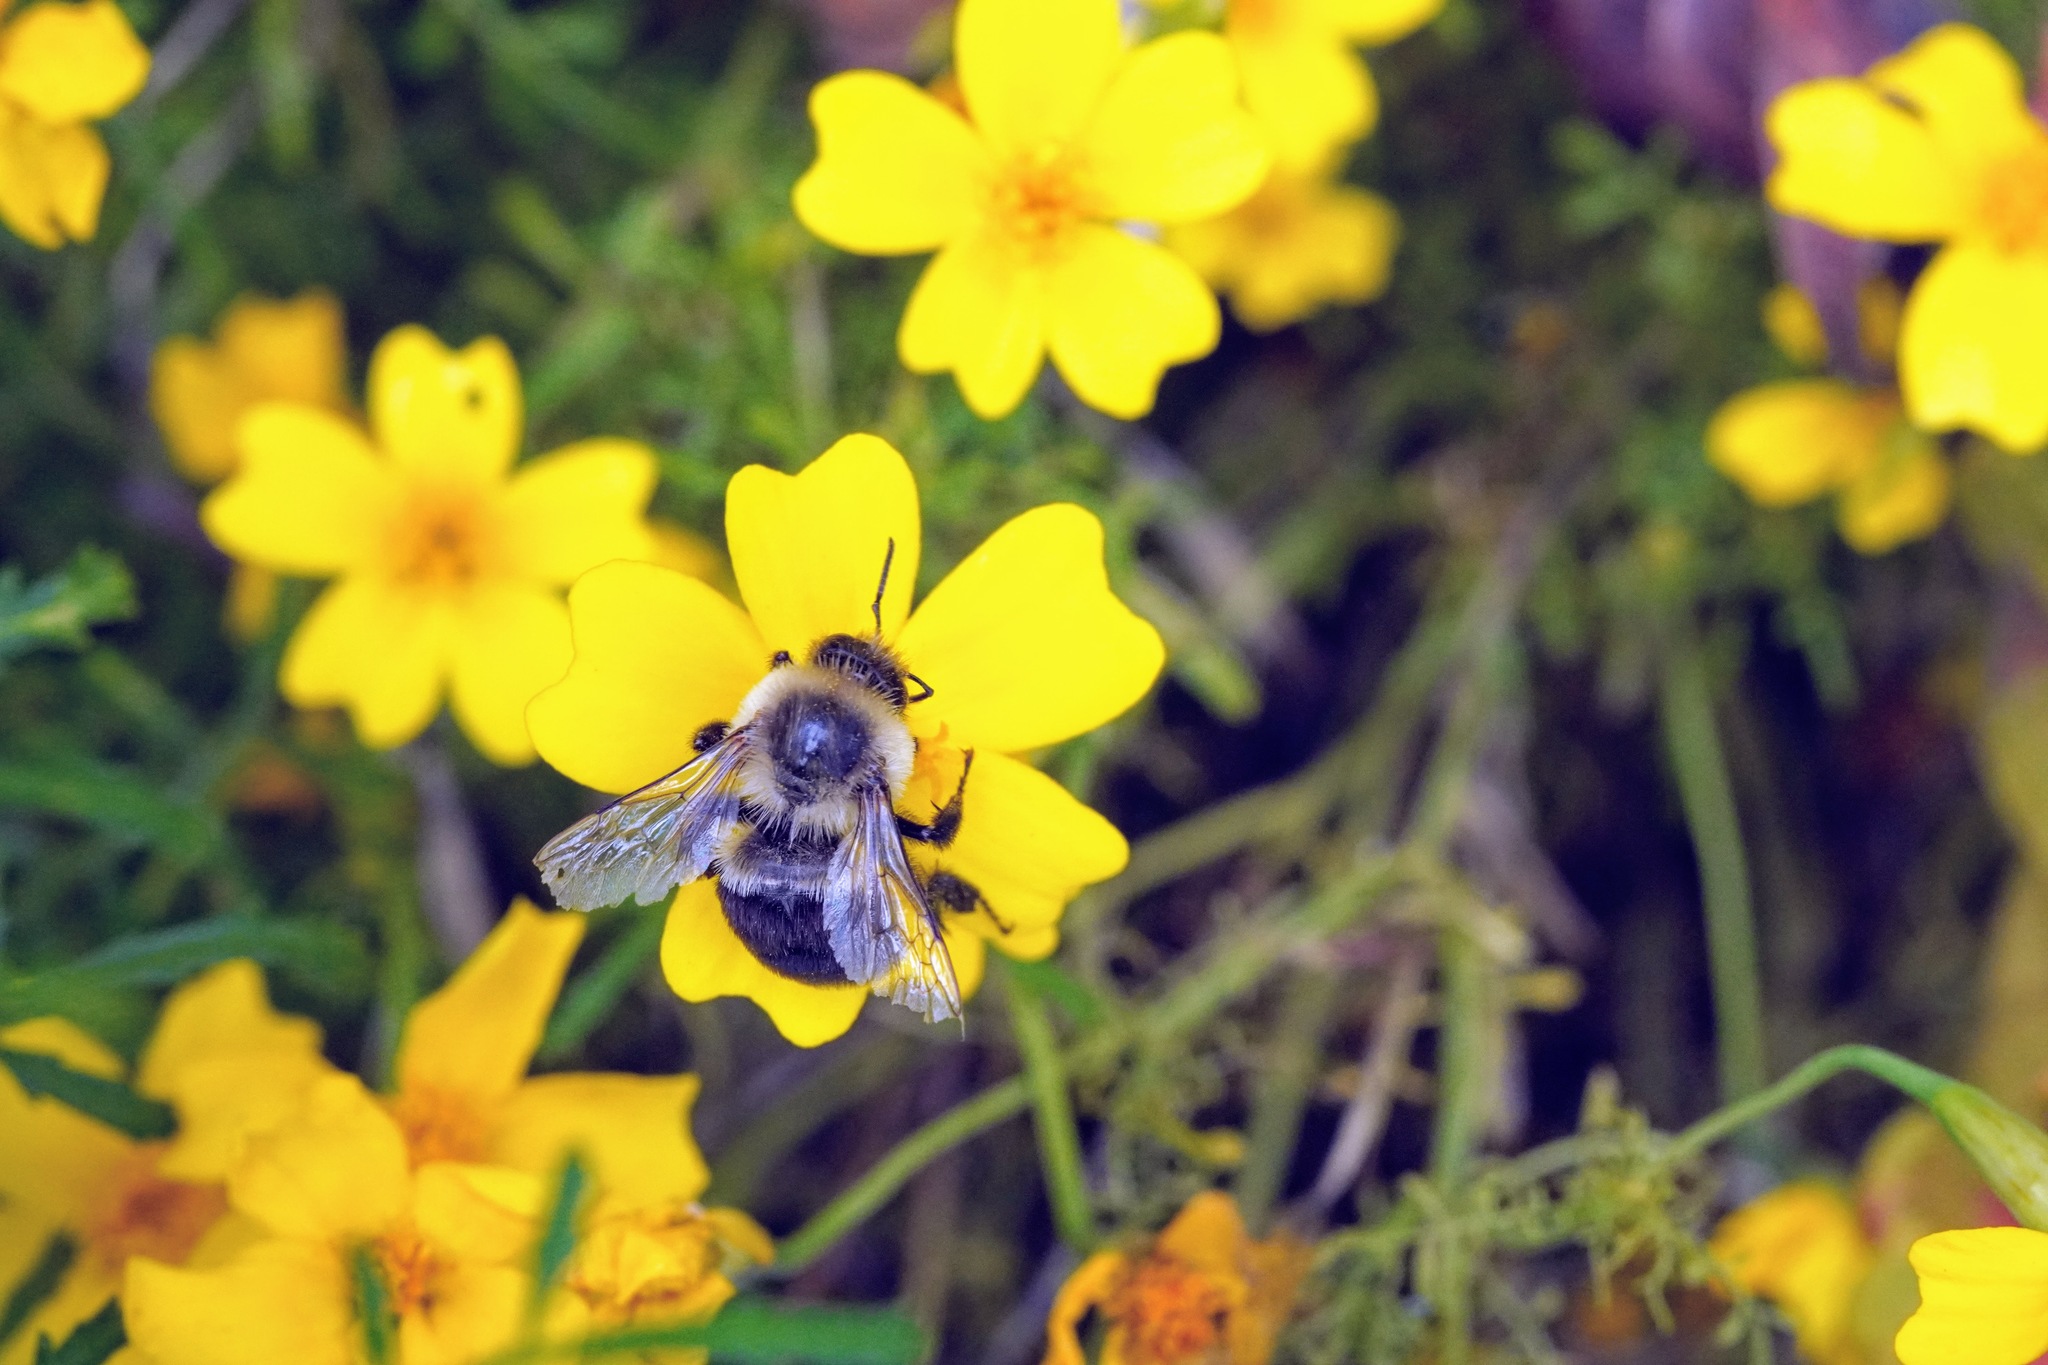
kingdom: Animalia
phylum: Arthropoda
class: Insecta
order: Hymenoptera
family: Apidae
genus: Bombus
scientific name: Bombus impatiens
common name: Common eastern bumble bee
